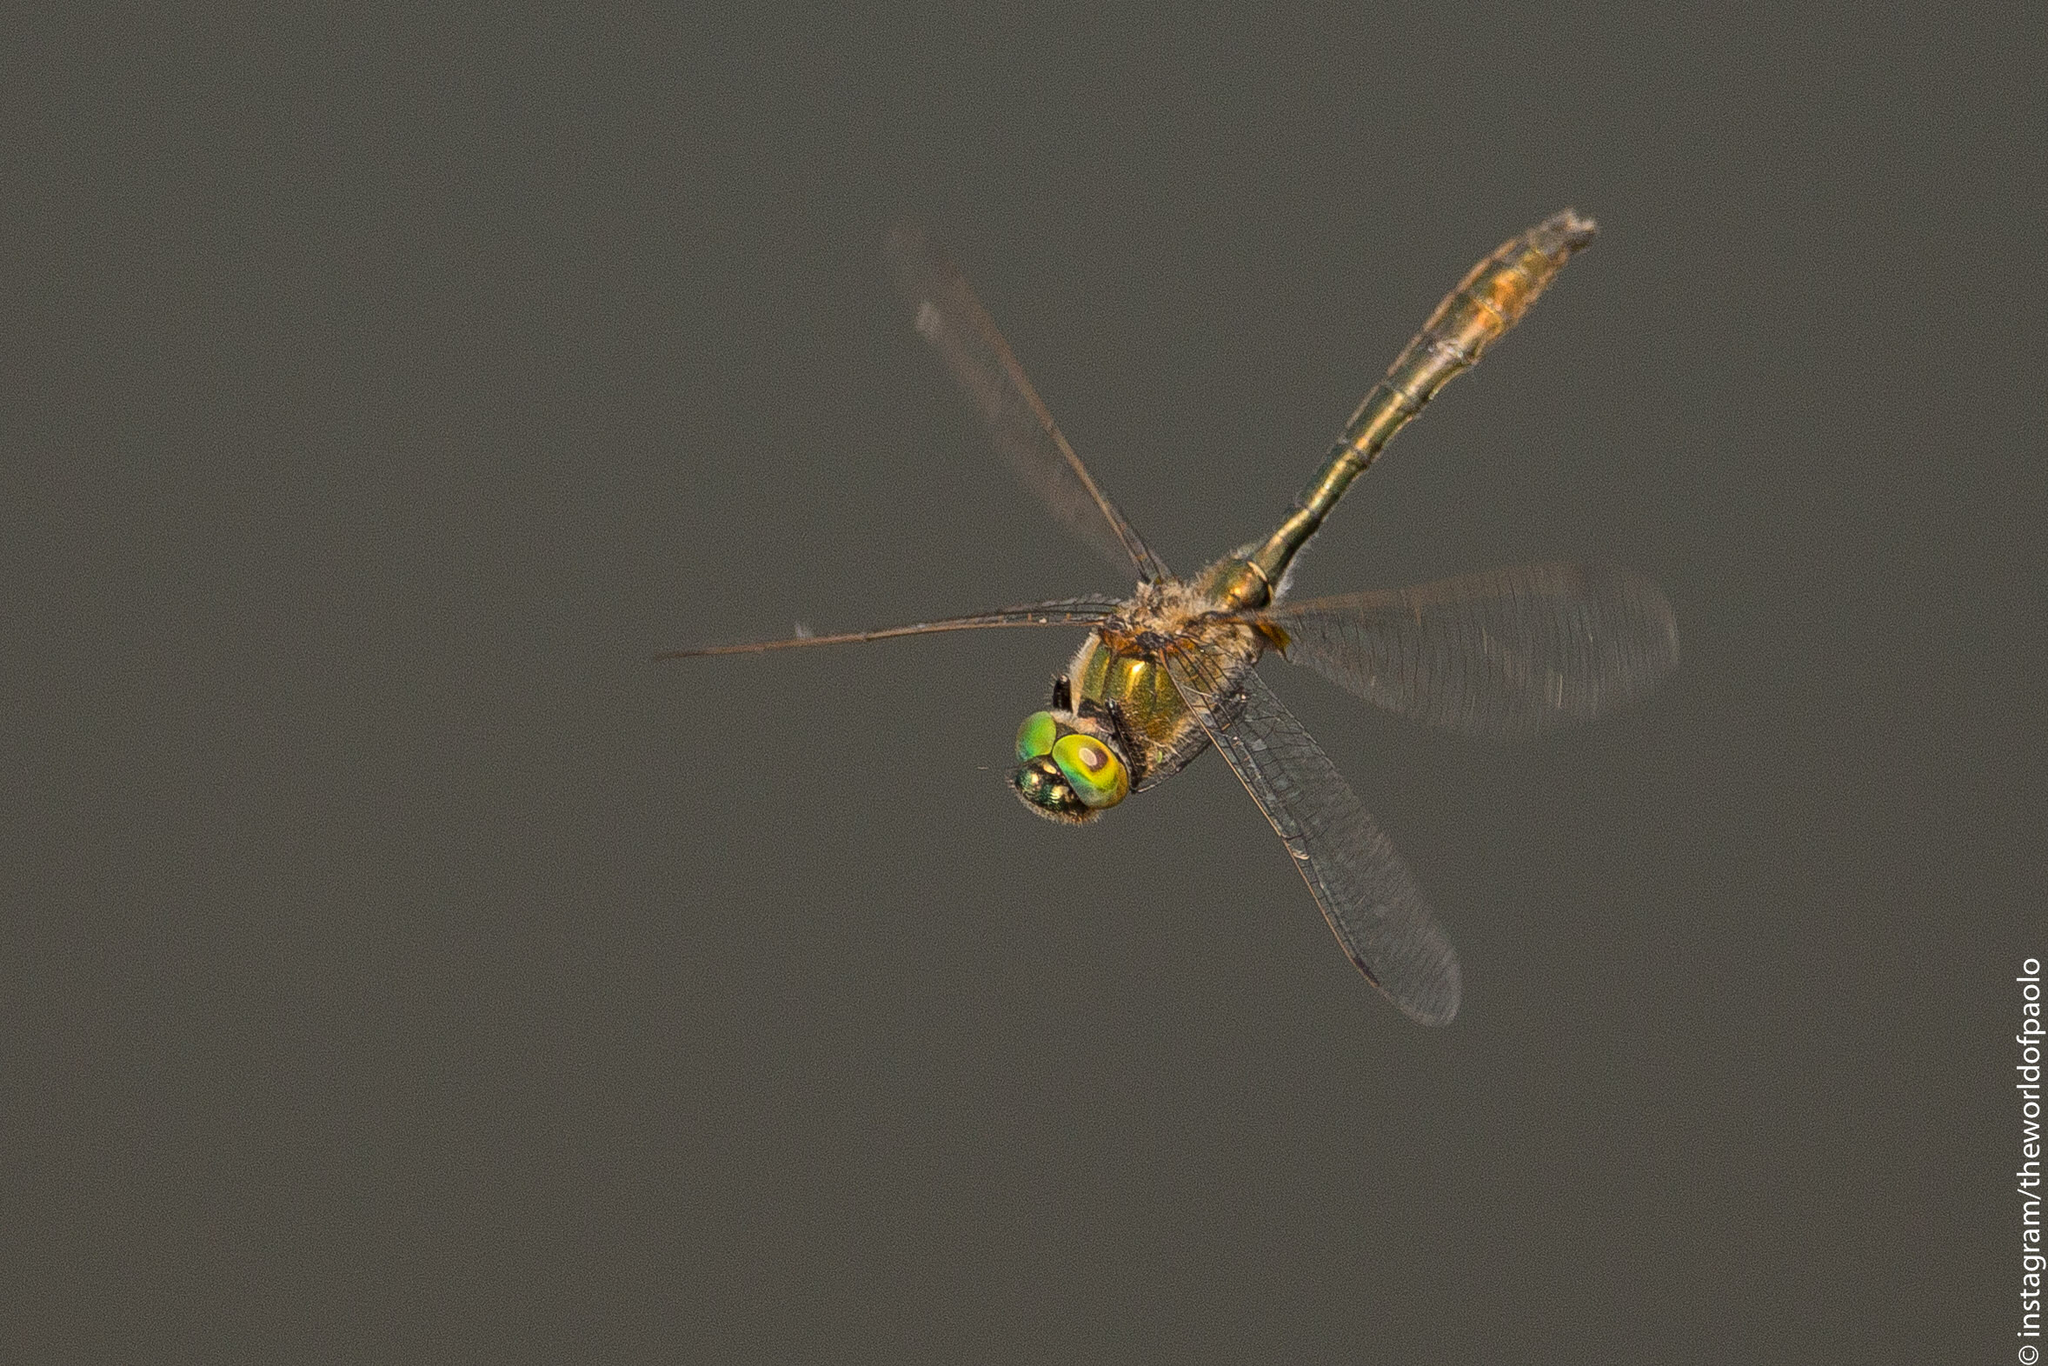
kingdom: Animalia
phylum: Arthropoda
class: Insecta
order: Odonata
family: Corduliidae
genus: Cordulia
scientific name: Cordulia aenea
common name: Downy emerald
